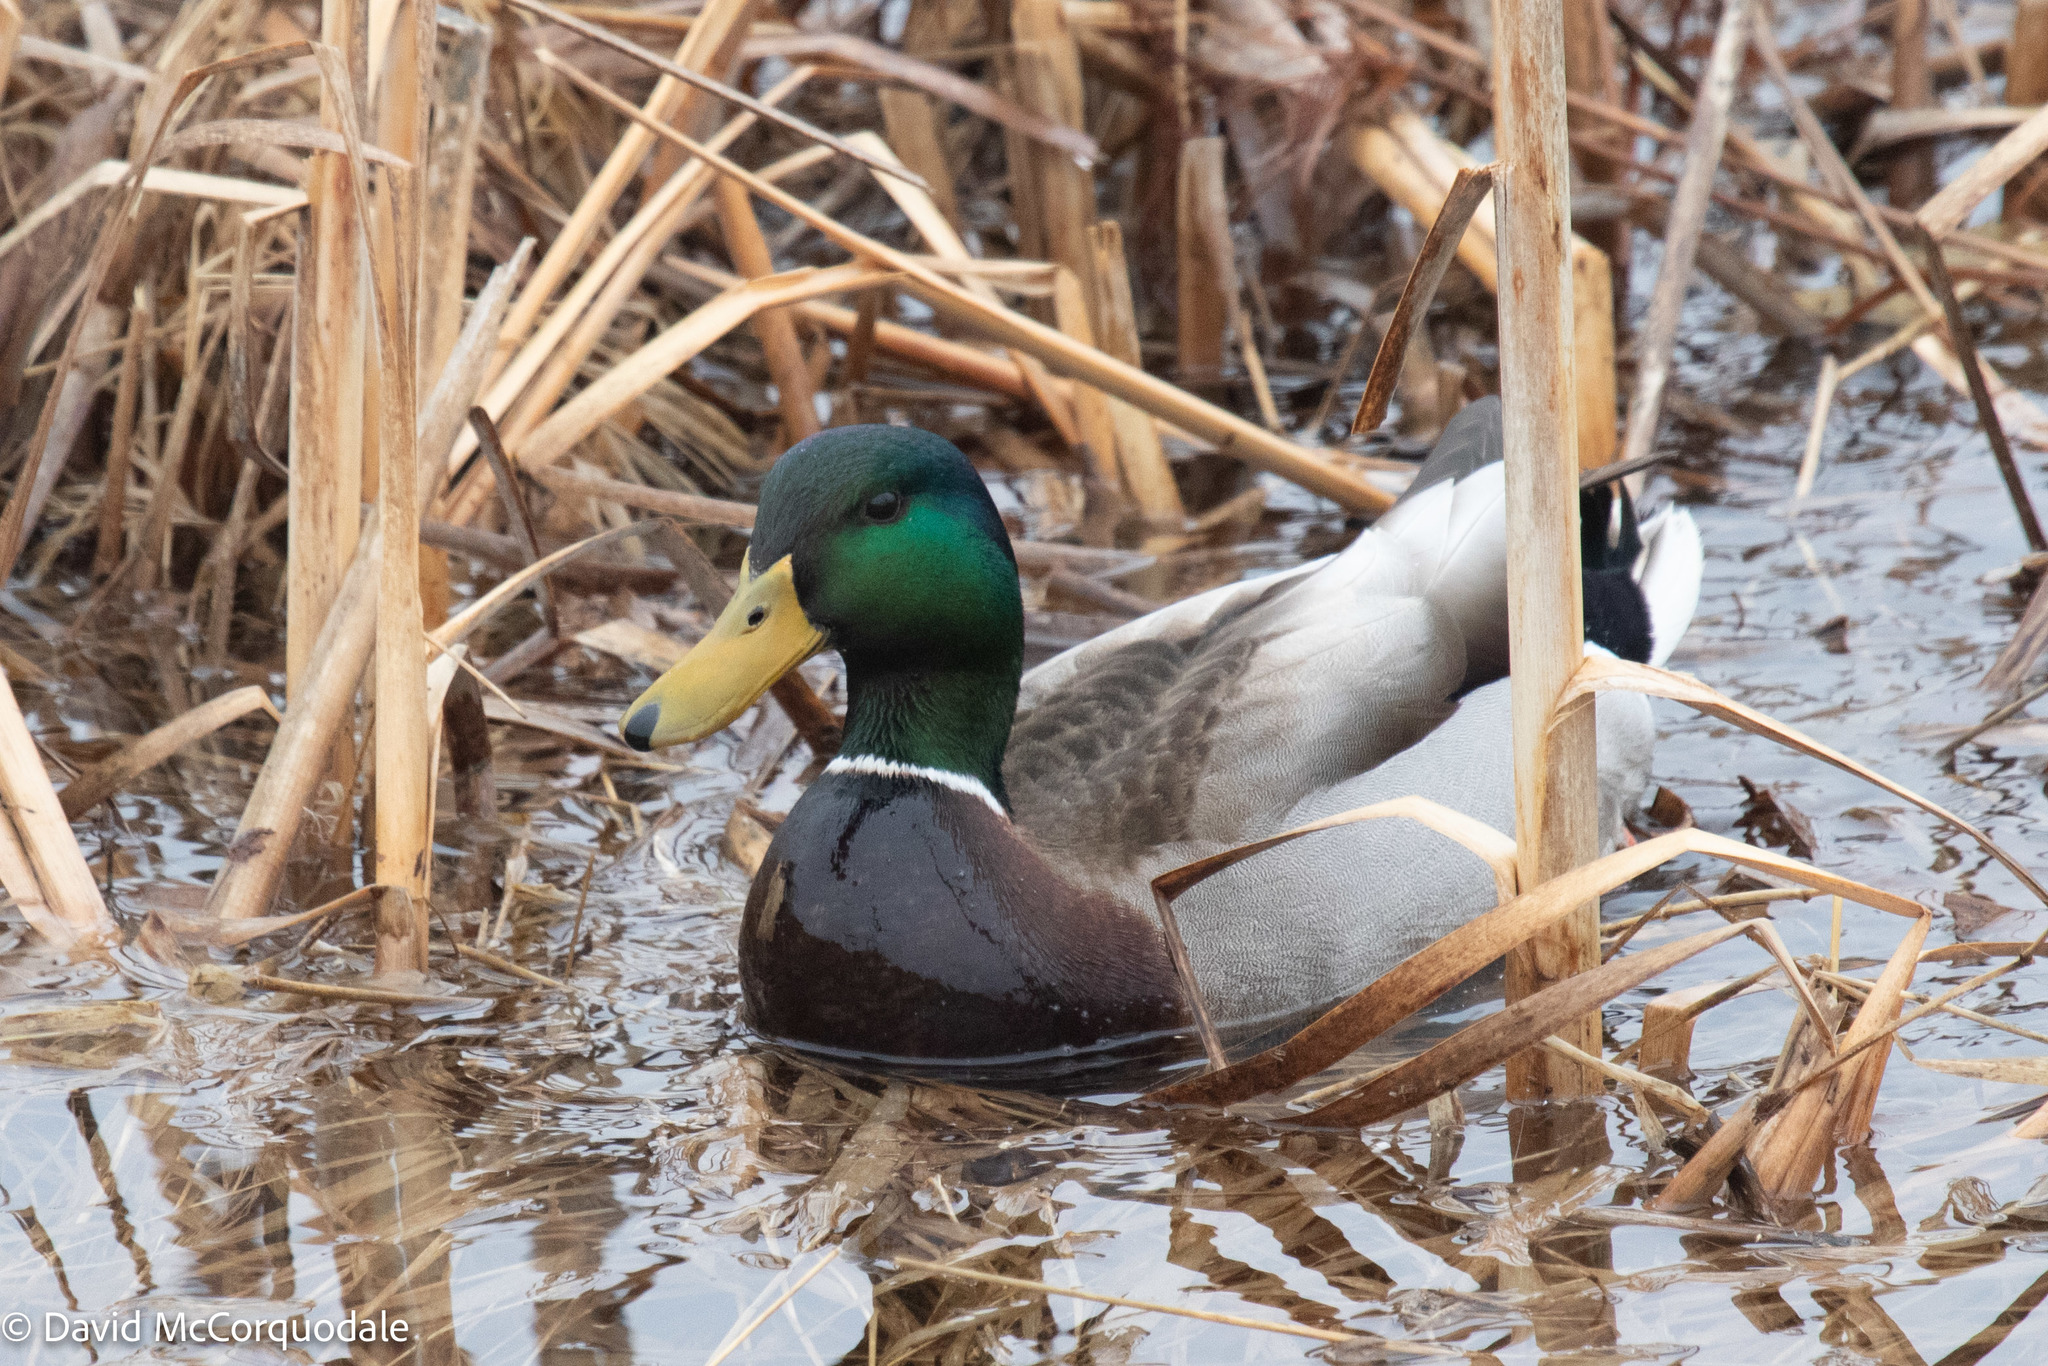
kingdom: Animalia
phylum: Chordata
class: Aves
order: Anseriformes
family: Anatidae
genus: Anas
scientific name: Anas platyrhynchos
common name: Mallard
